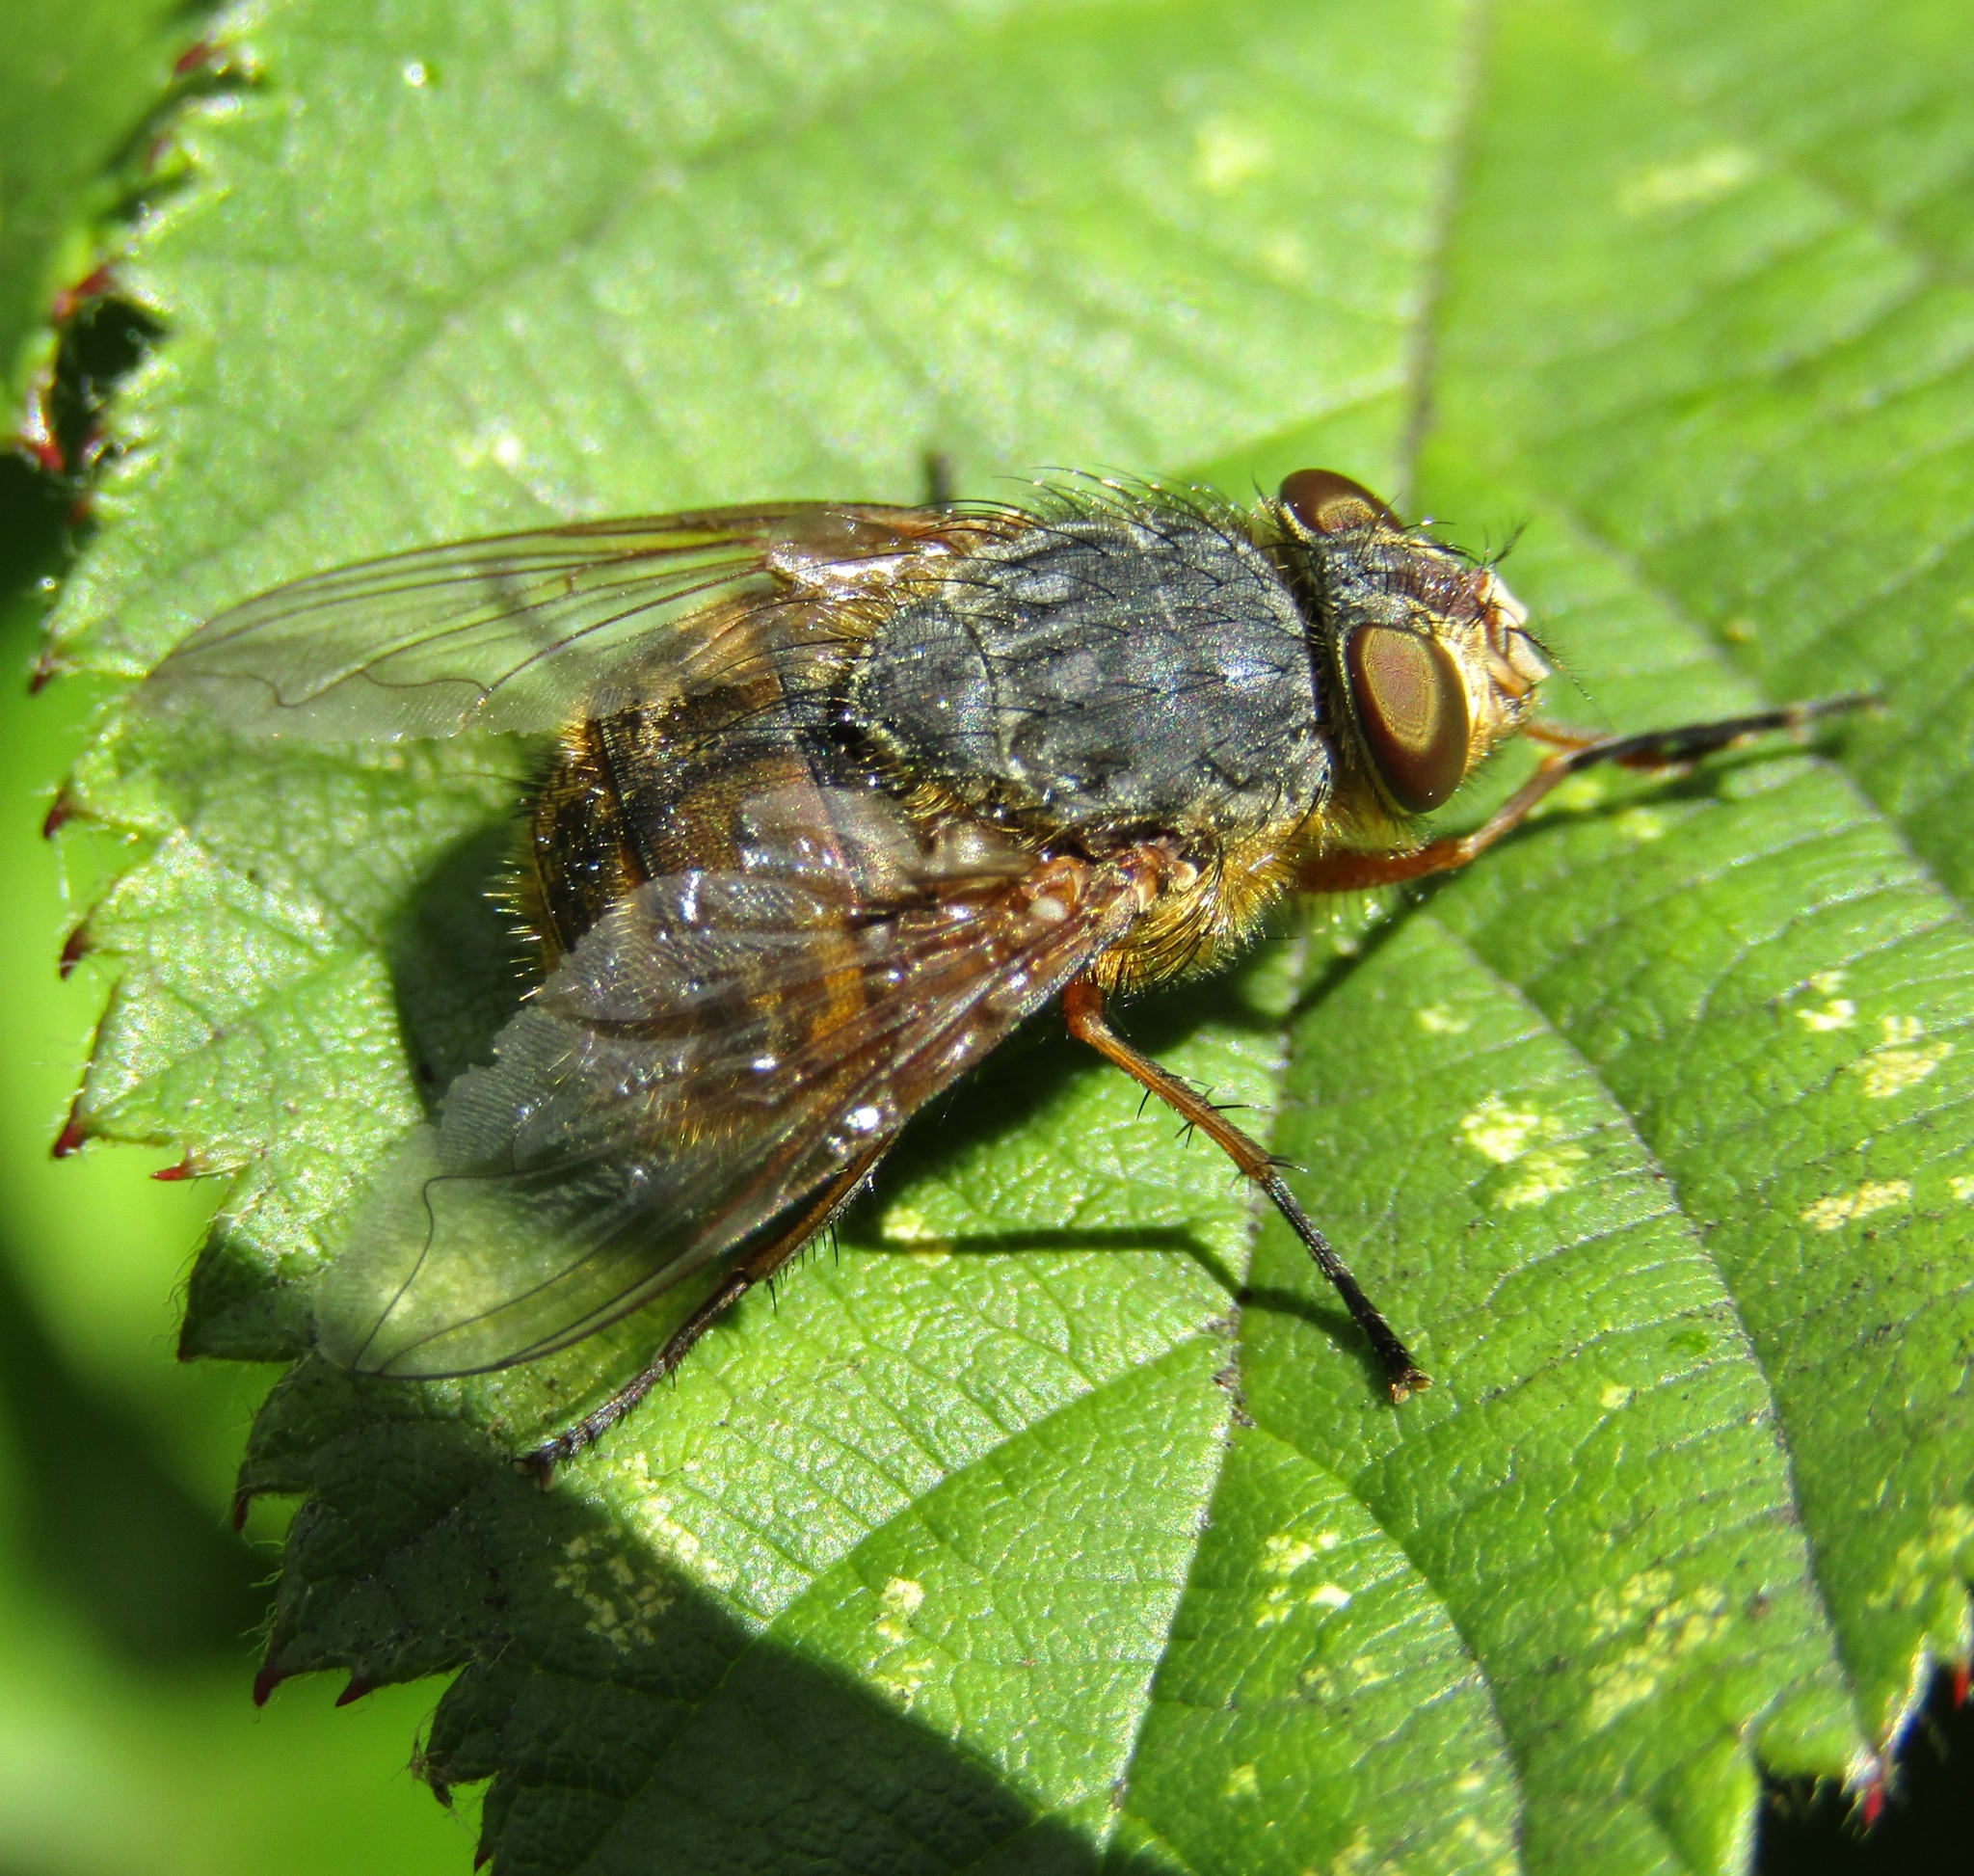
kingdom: Animalia
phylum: Arthropoda
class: Insecta
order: Diptera
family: Calliphoridae
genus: Calliphora
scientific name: Calliphora hilli
